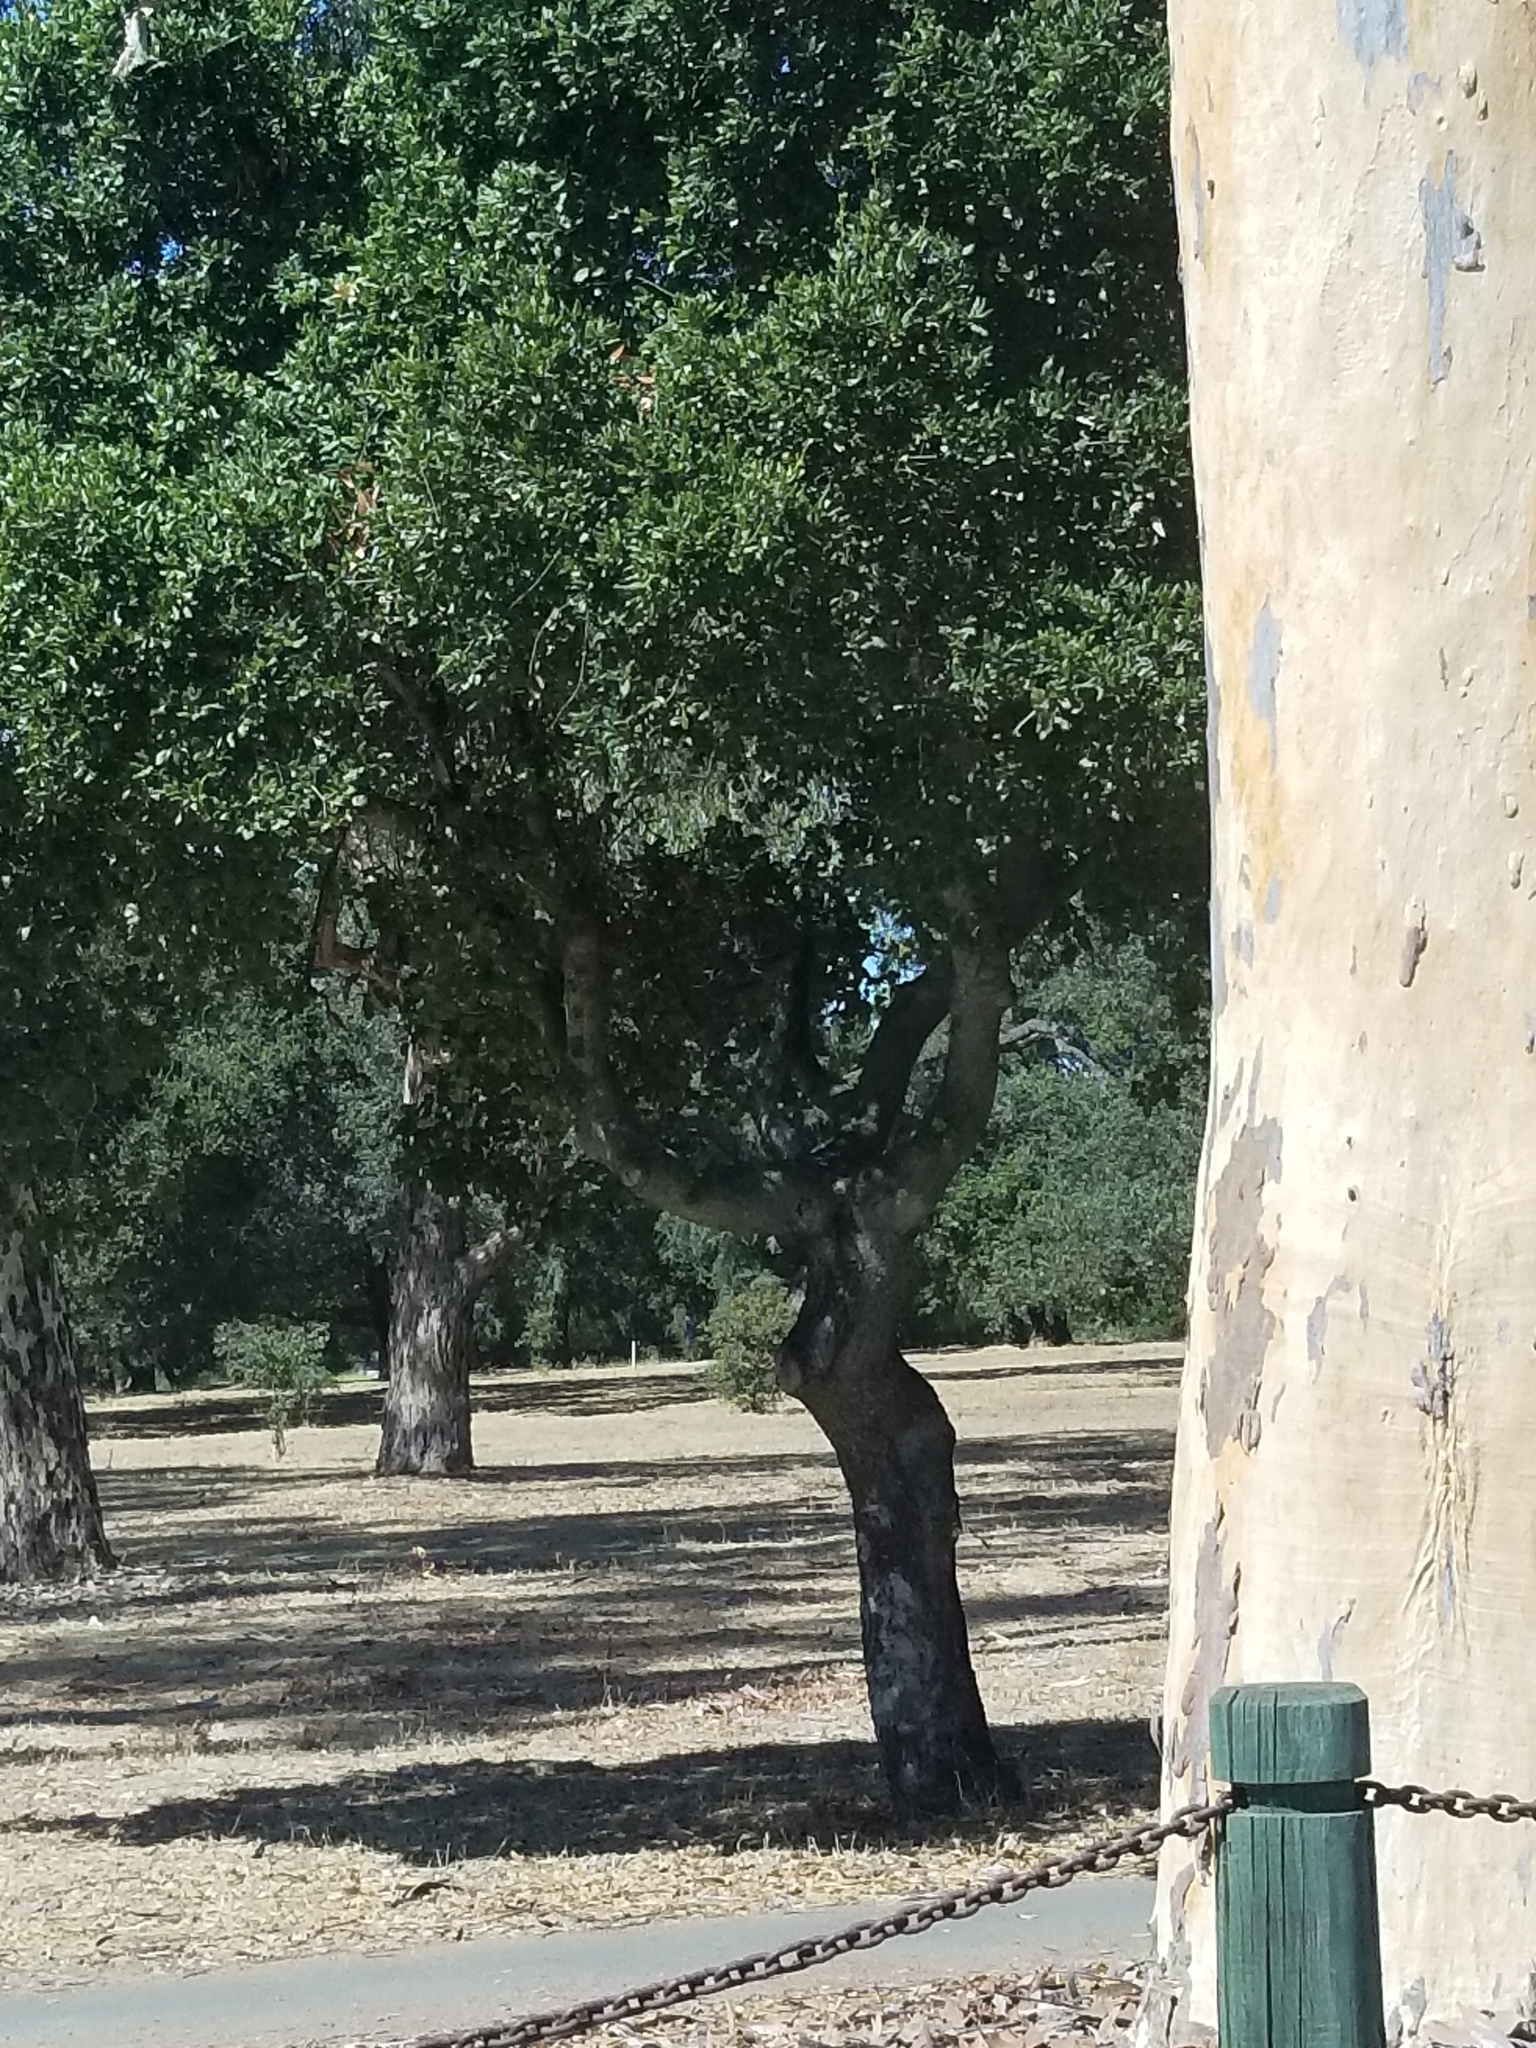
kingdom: Plantae
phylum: Tracheophyta
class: Magnoliopsida
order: Myrtales
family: Myrtaceae
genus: Eucalyptus
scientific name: Eucalyptus cladocalyx
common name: Sugargum
